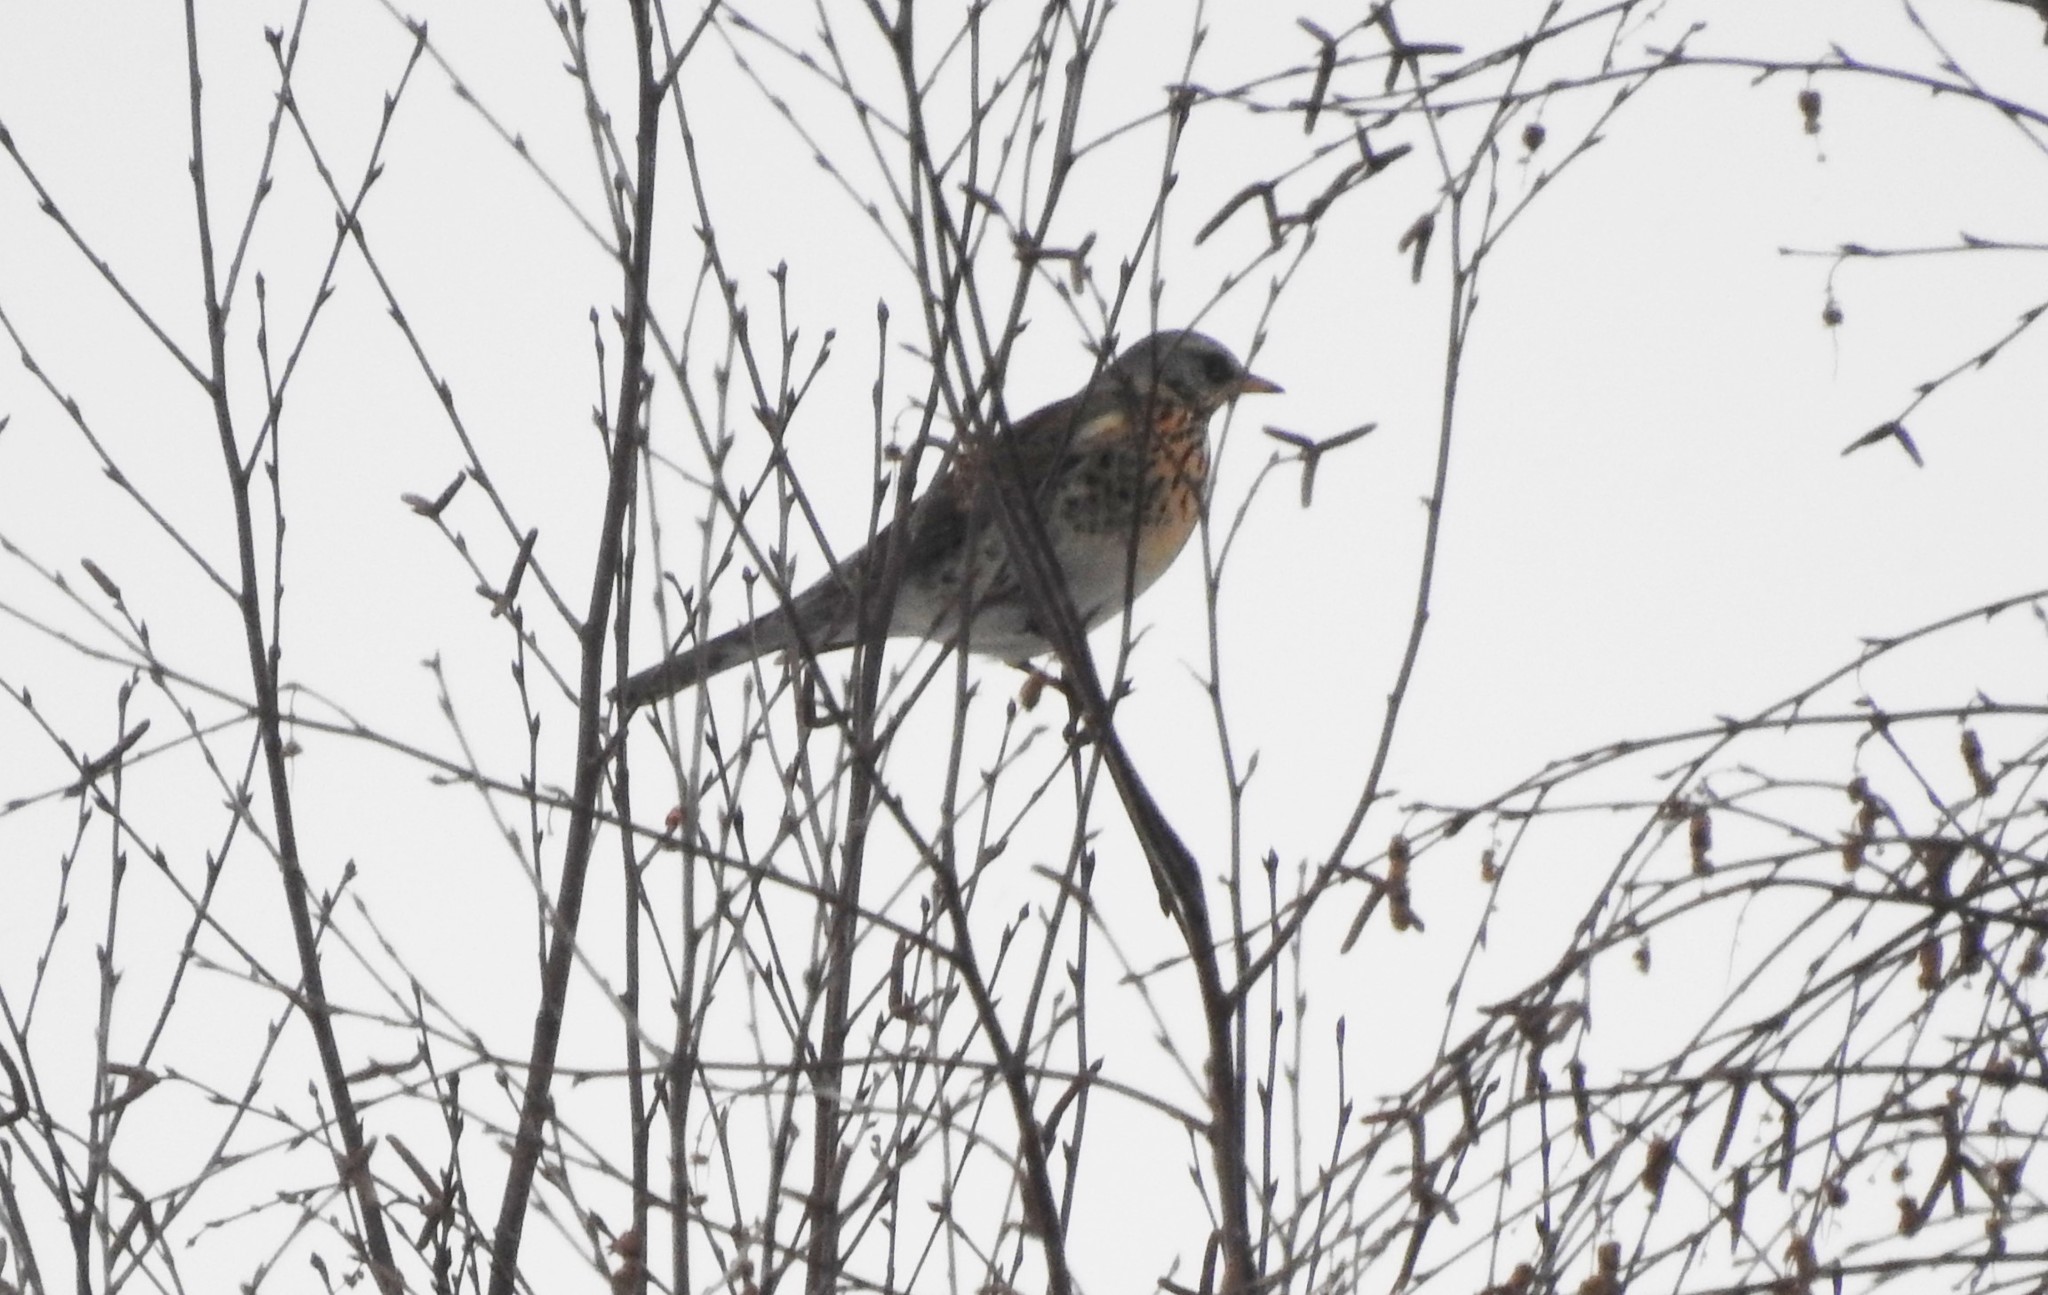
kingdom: Animalia
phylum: Chordata
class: Aves
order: Passeriformes
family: Turdidae
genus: Turdus
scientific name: Turdus pilaris
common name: Fieldfare
